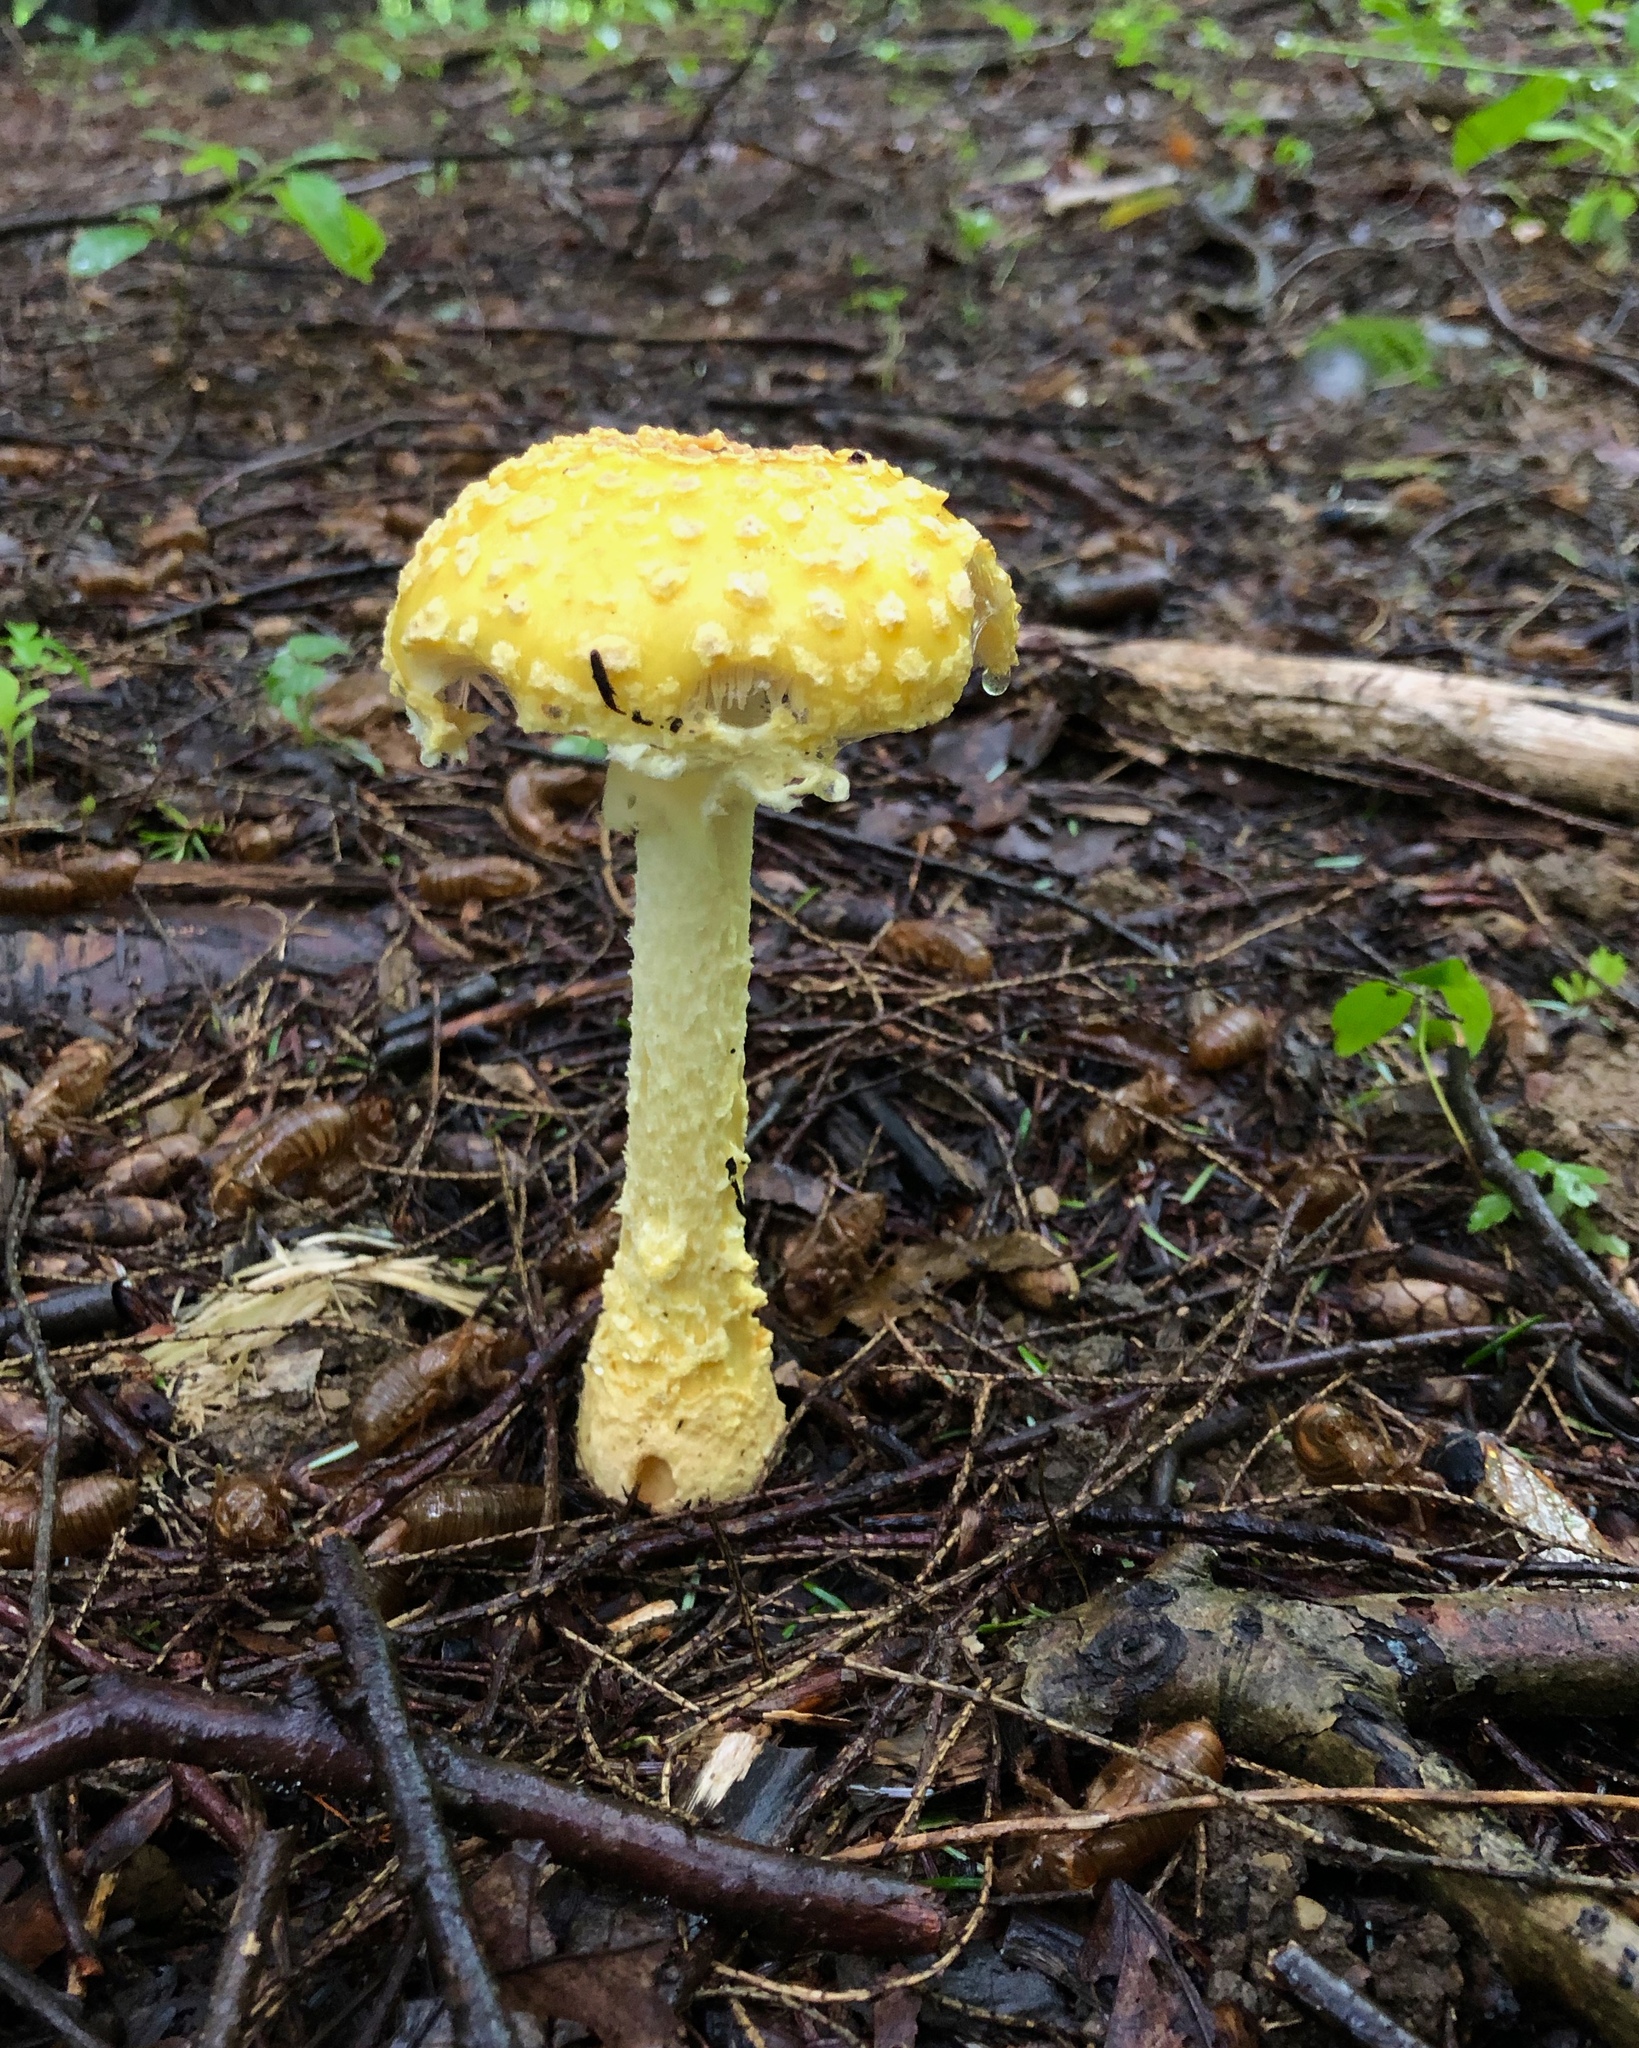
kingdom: Fungi
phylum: Basidiomycota
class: Agaricomycetes
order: Agaricales
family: Amanitaceae
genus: Amanita
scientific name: Amanita muscaria
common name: Fly agaric
